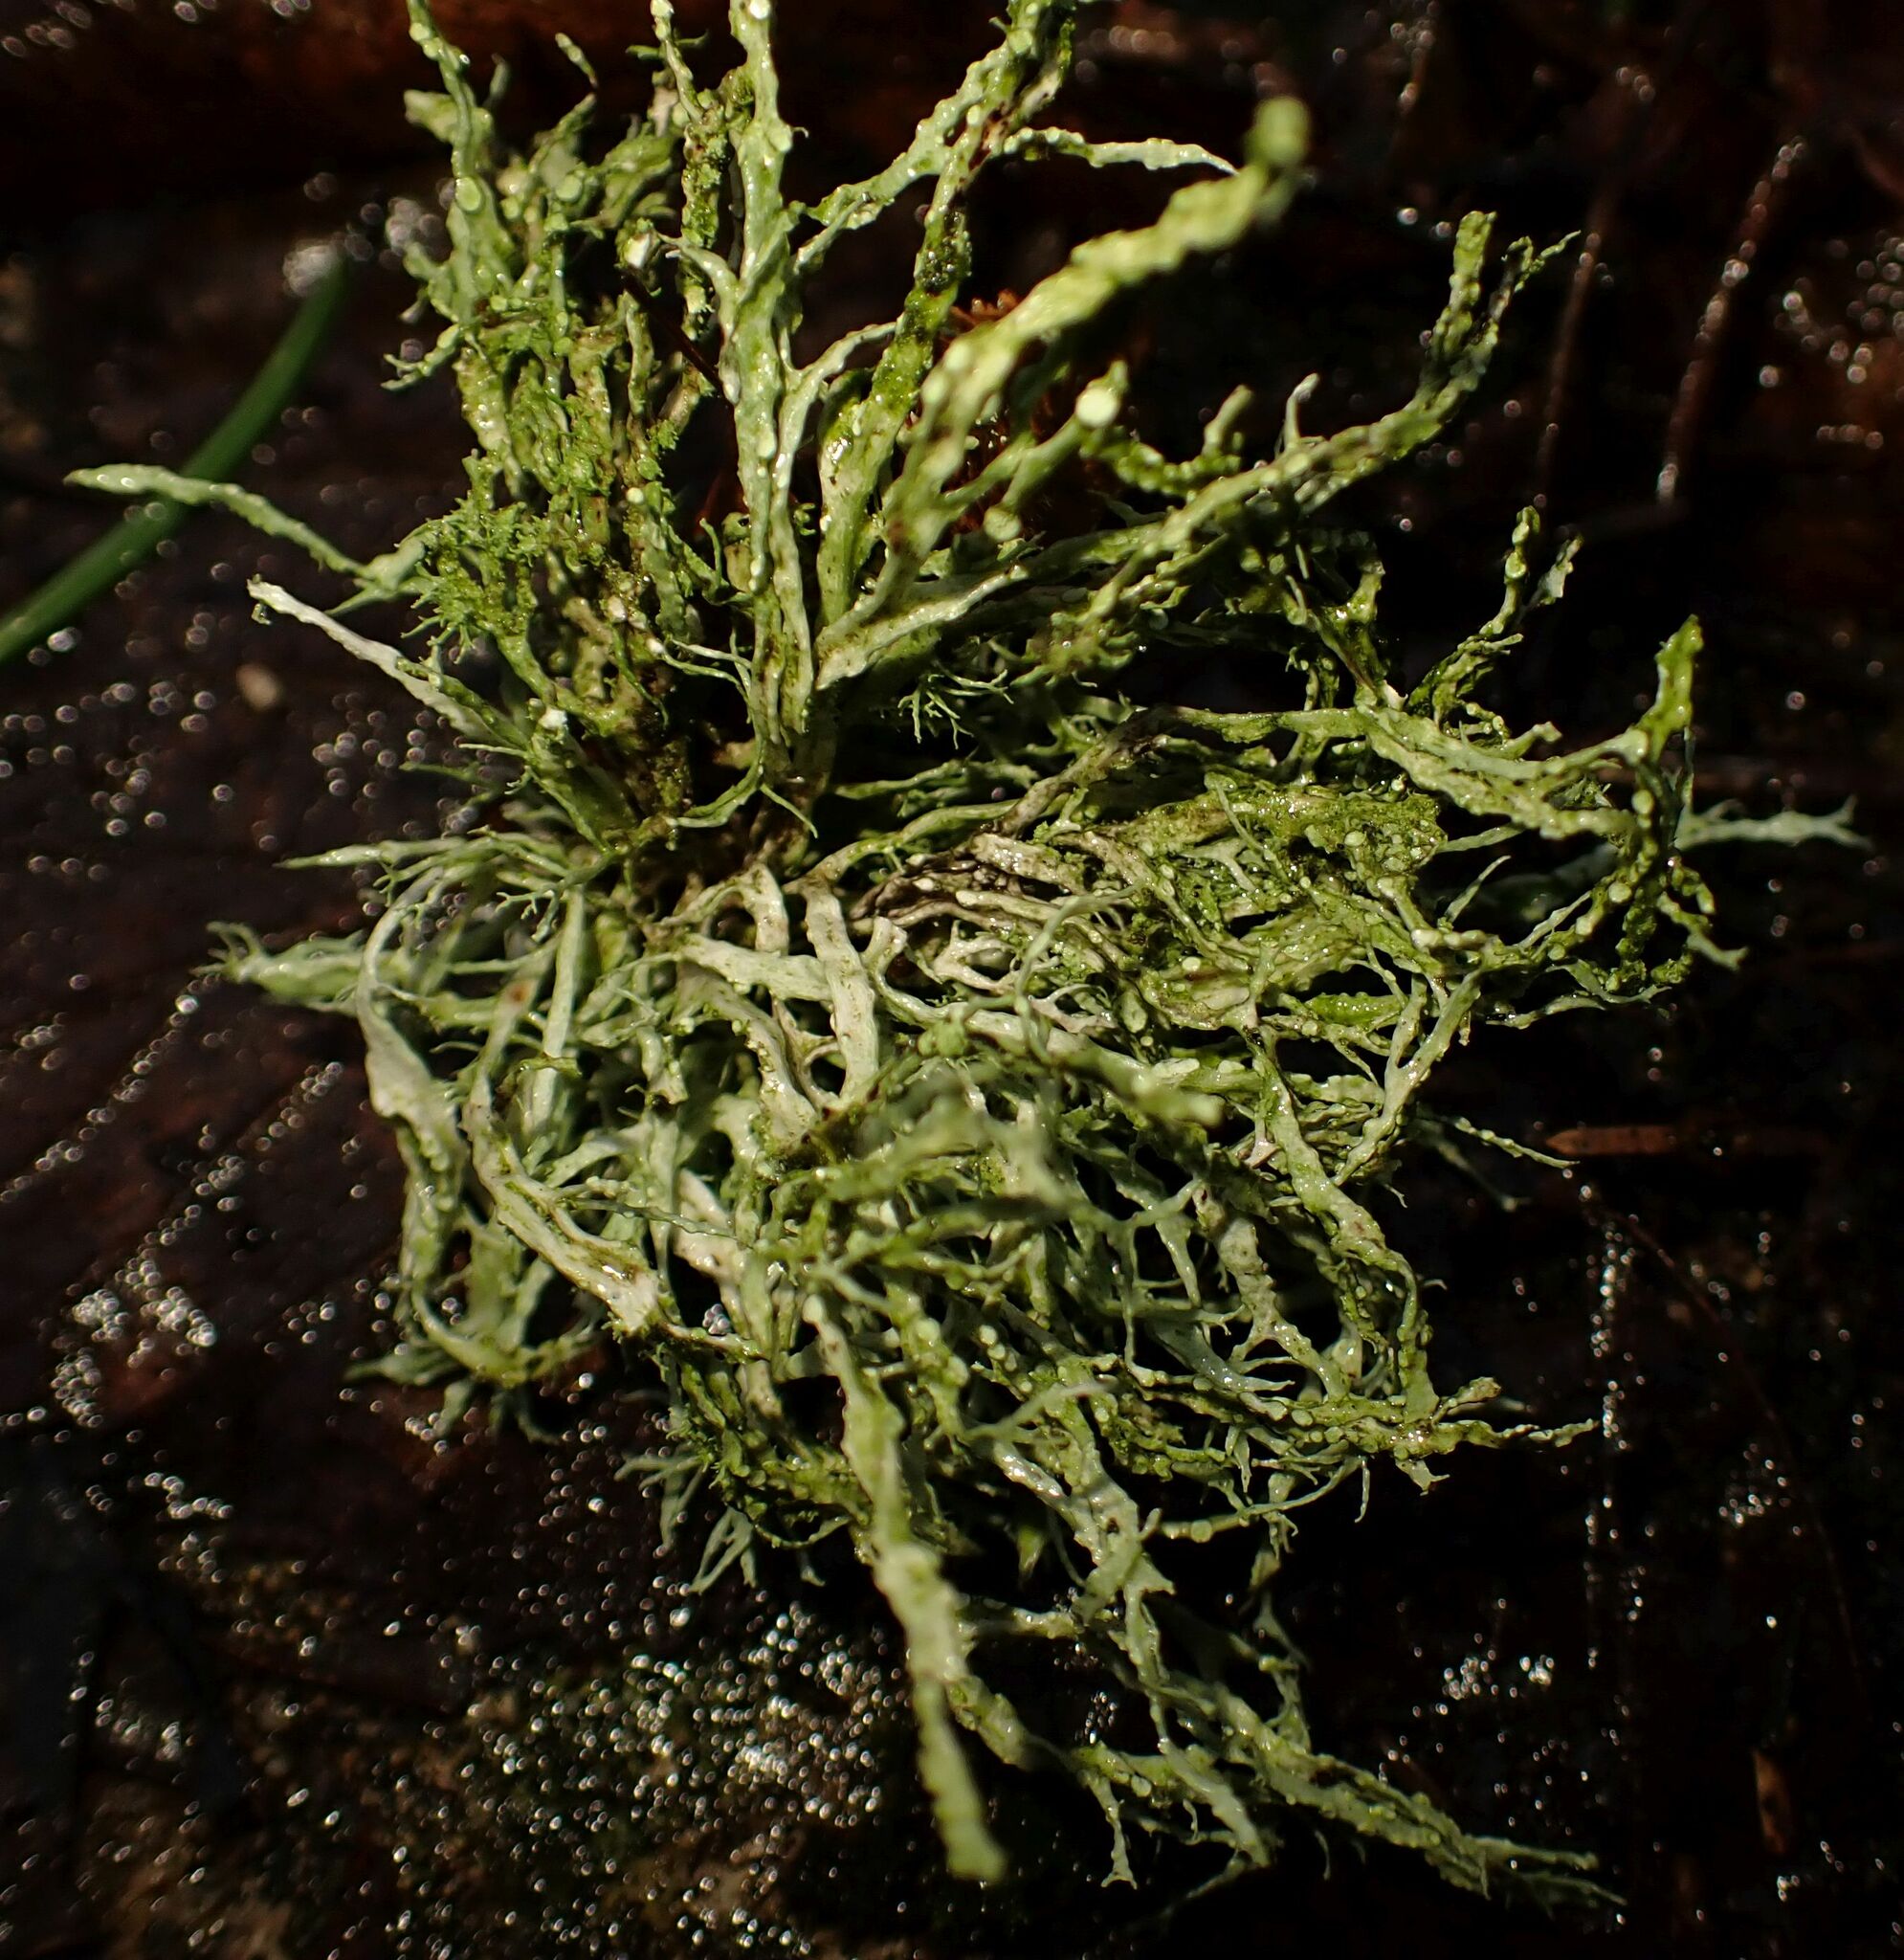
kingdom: Fungi
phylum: Ascomycota
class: Lecanoromycetes
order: Lecanorales
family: Ramalinaceae
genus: Ramalina
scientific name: Ramalina farinacea
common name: Farinose cartilage lichen
